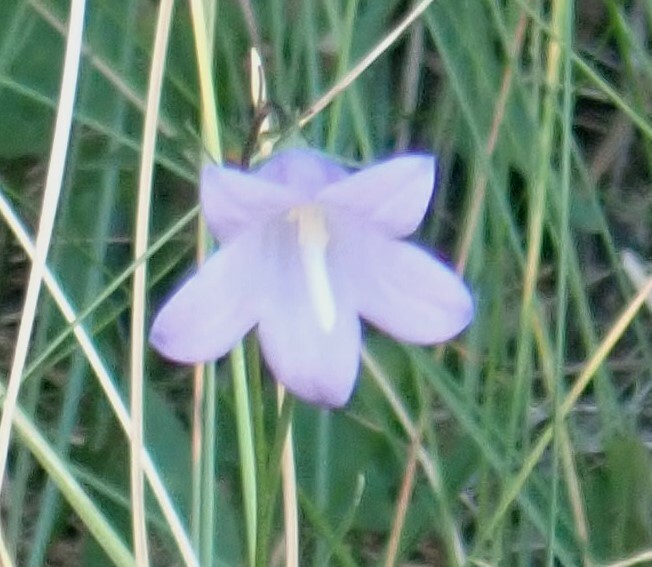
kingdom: Plantae
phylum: Tracheophyta
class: Magnoliopsida
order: Asterales
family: Campanulaceae
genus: Campanula
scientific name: Campanula alaskana
